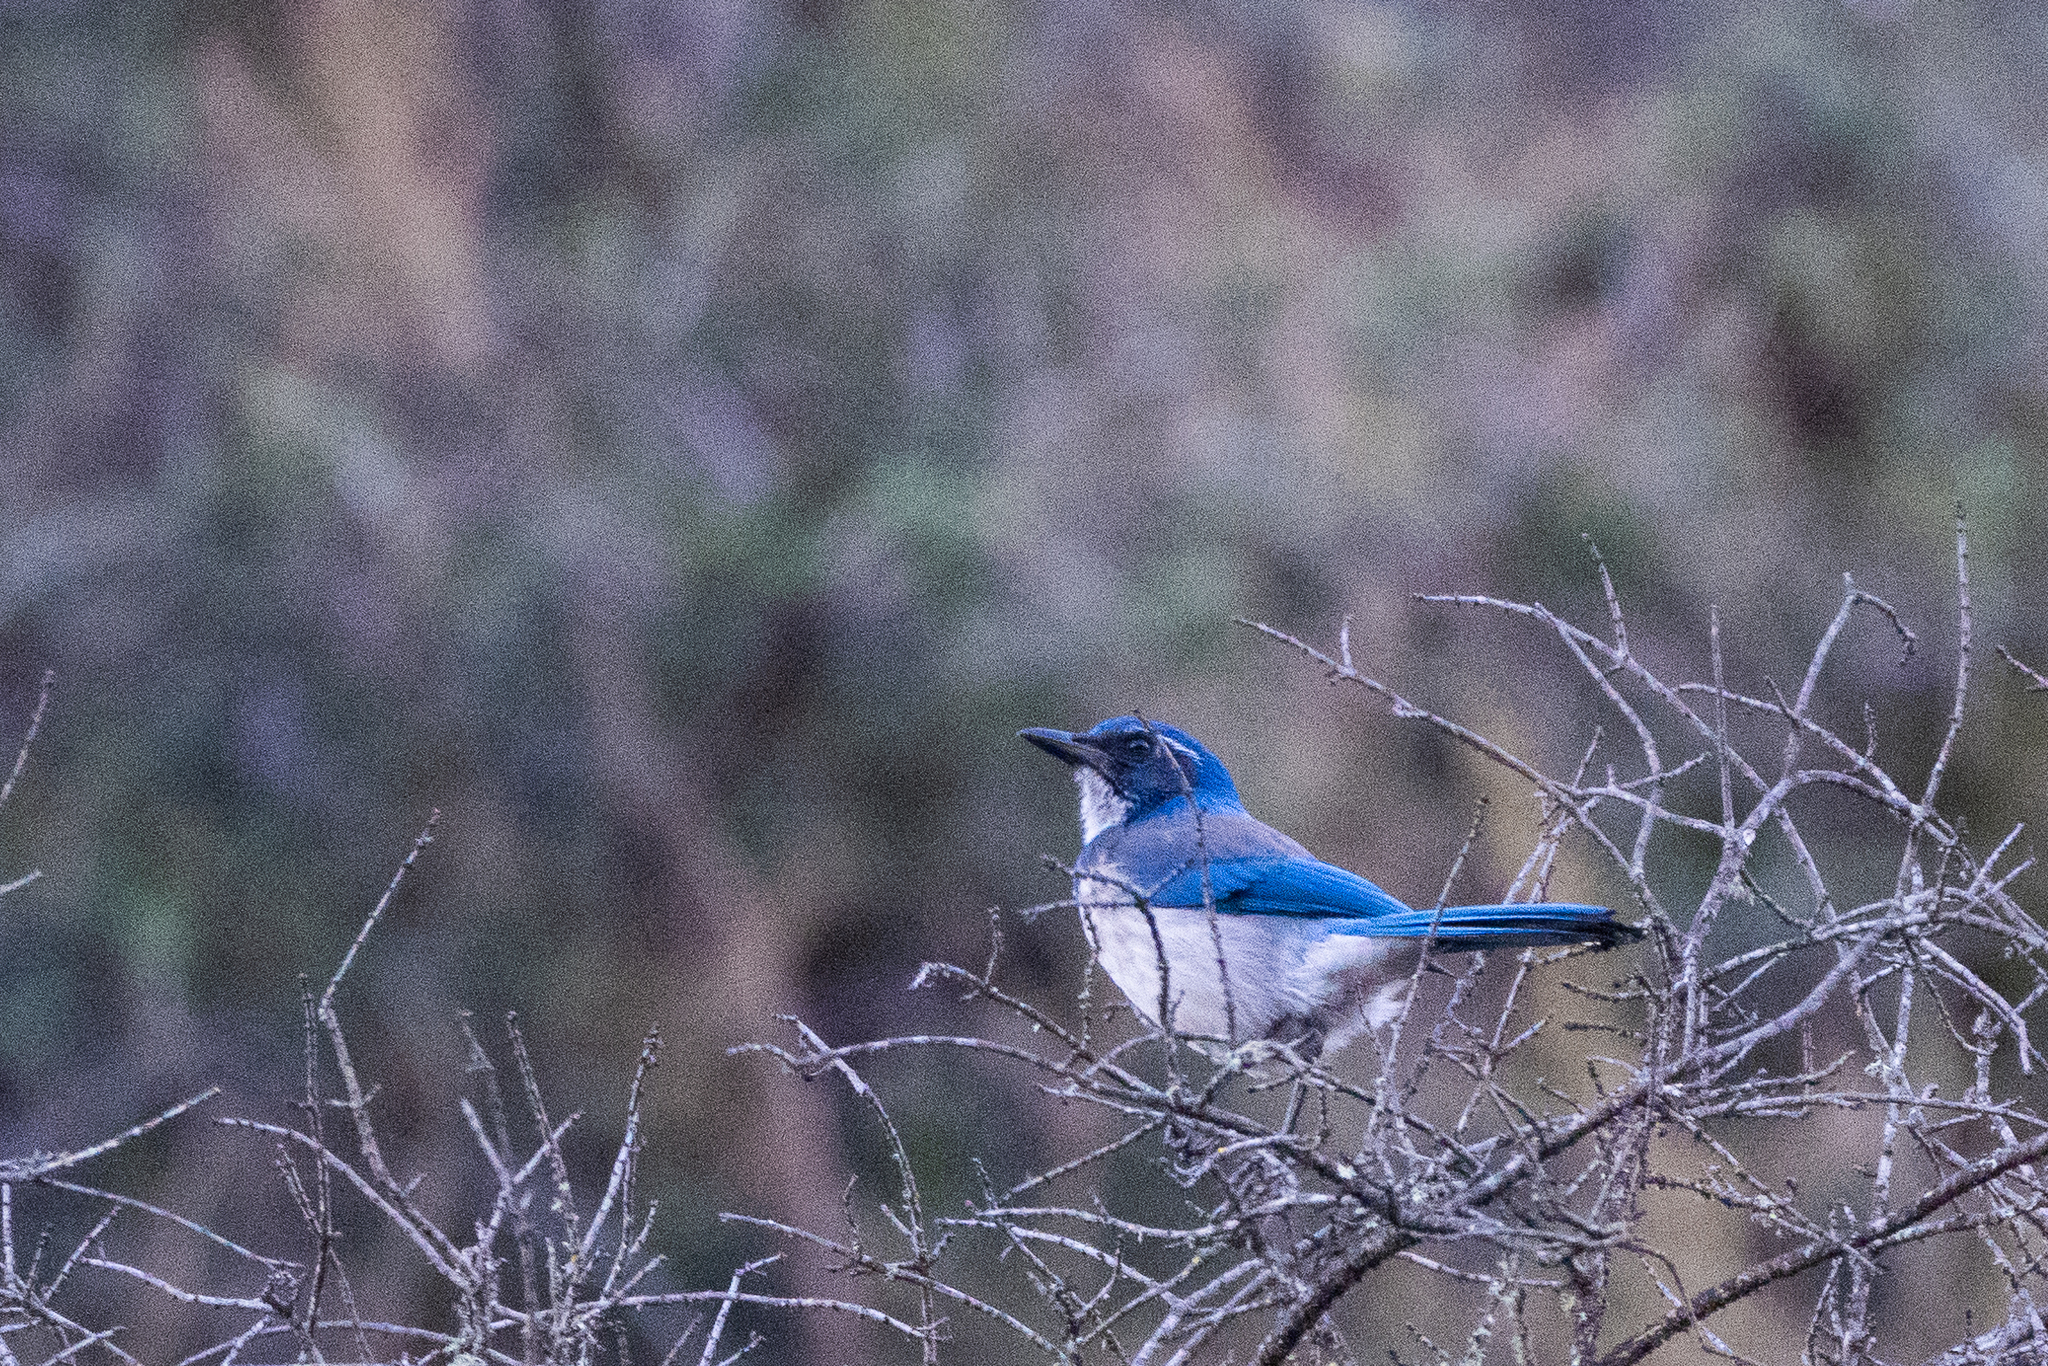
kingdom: Animalia
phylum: Chordata
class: Aves
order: Passeriformes
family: Corvidae
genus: Aphelocoma
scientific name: Aphelocoma californica
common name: California scrub-jay
